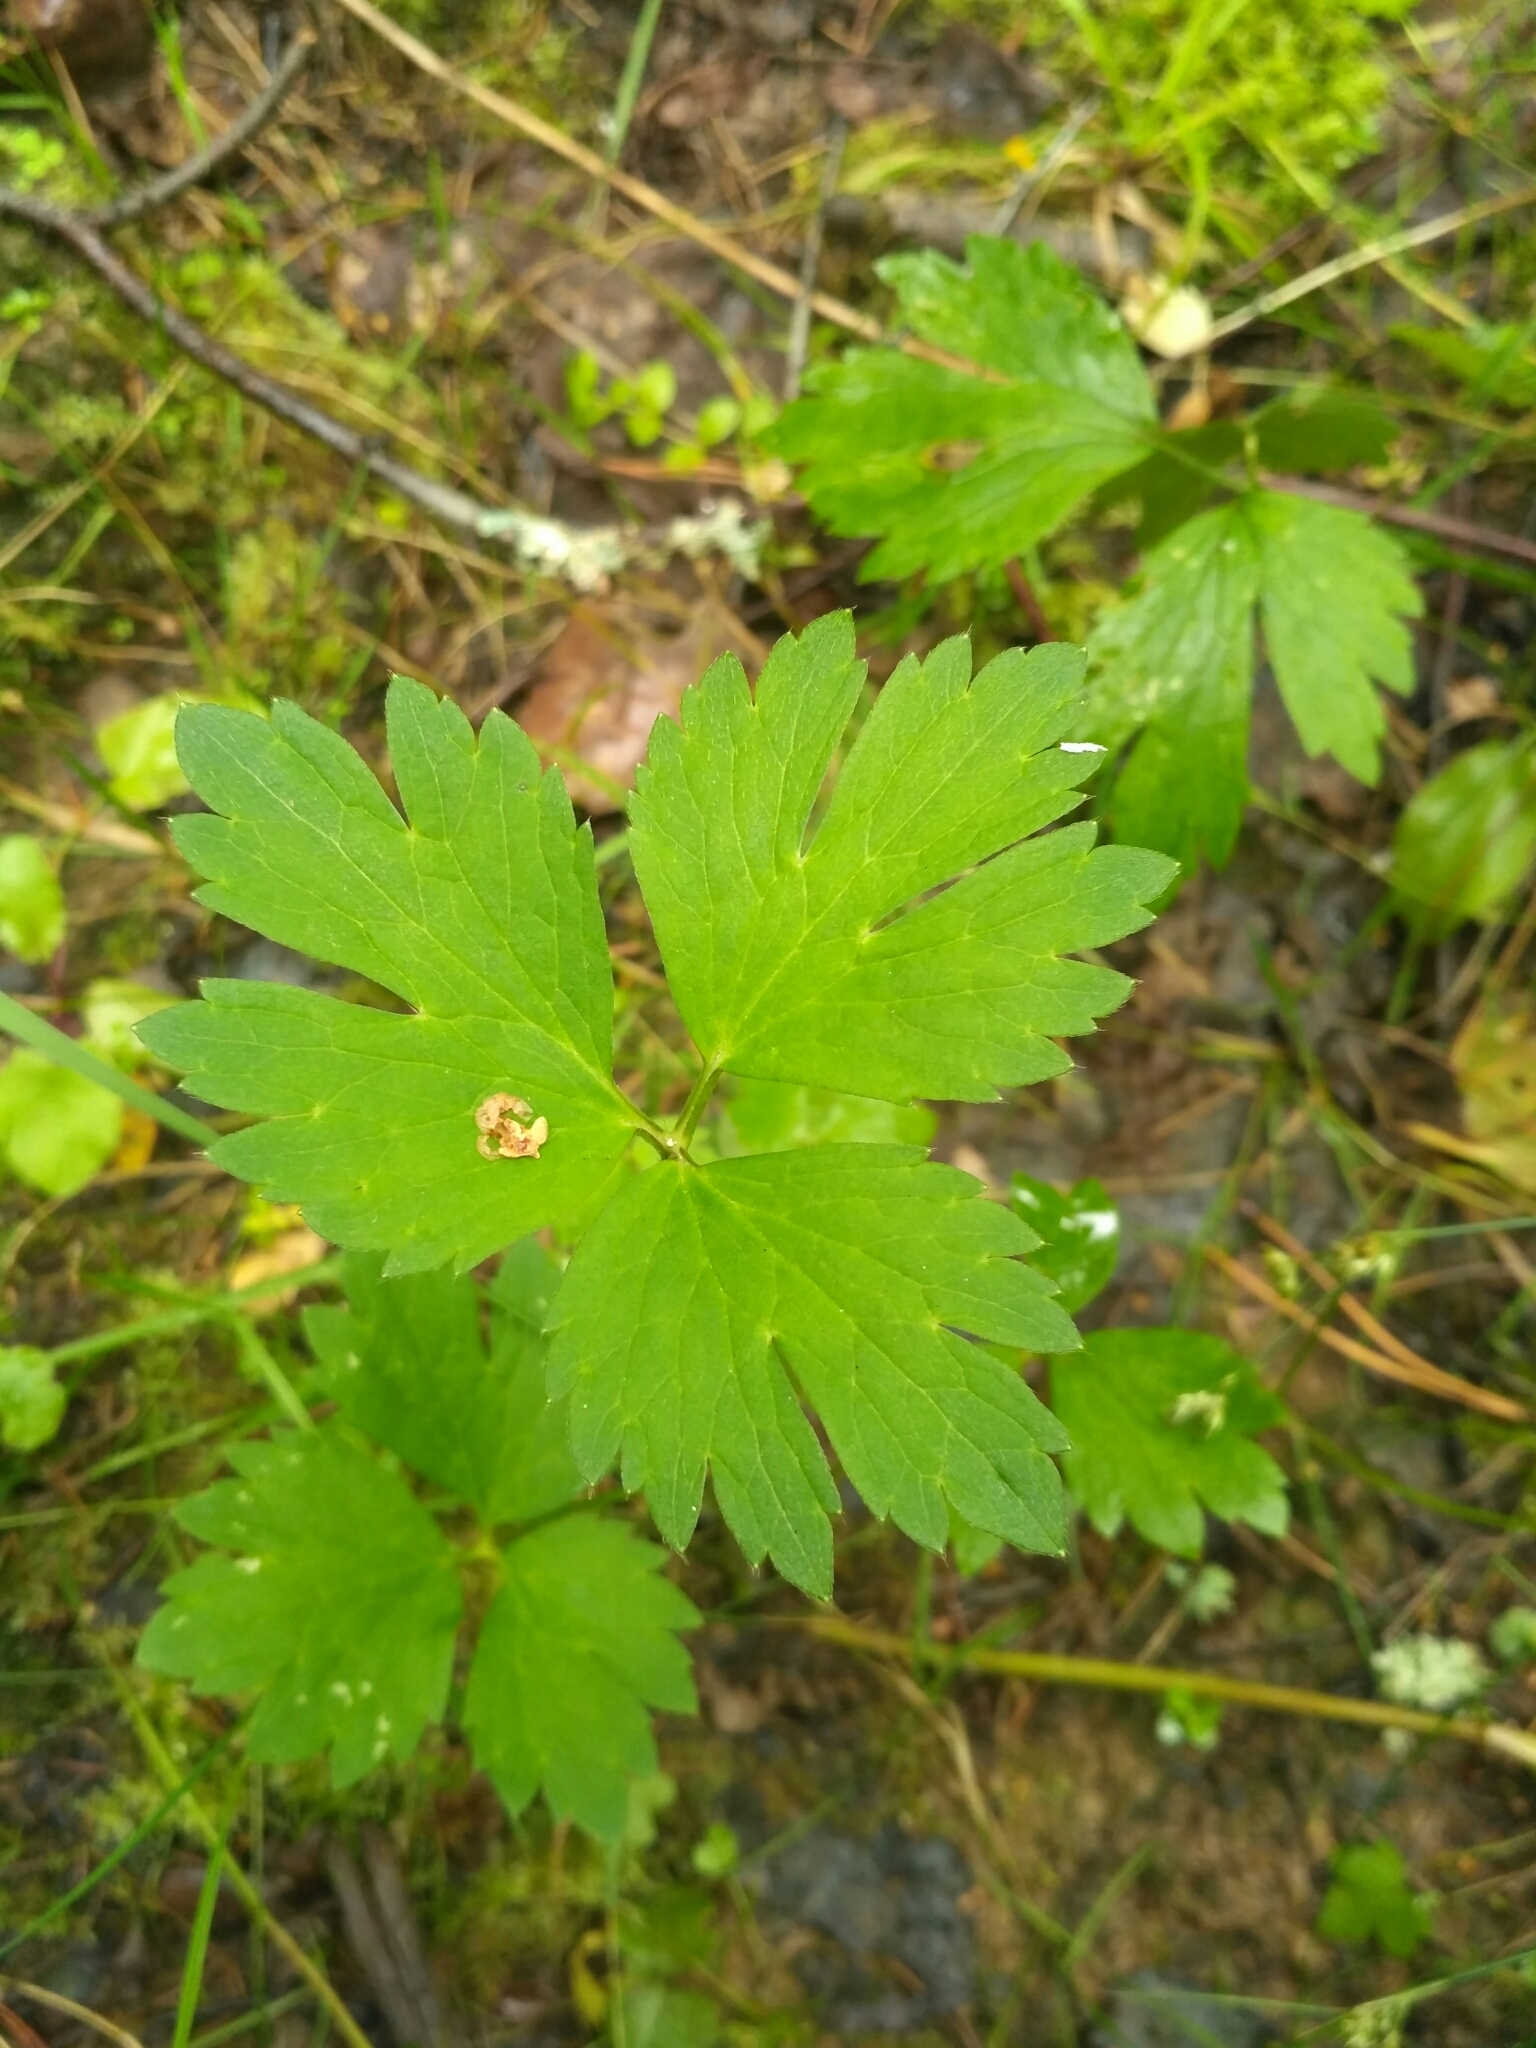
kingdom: Plantae
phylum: Tracheophyta
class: Magnoliopsida
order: Ranunculales
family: Ranunculaceae
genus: Ranunculus
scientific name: Ranunculus repens
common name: Creeping buttercup
